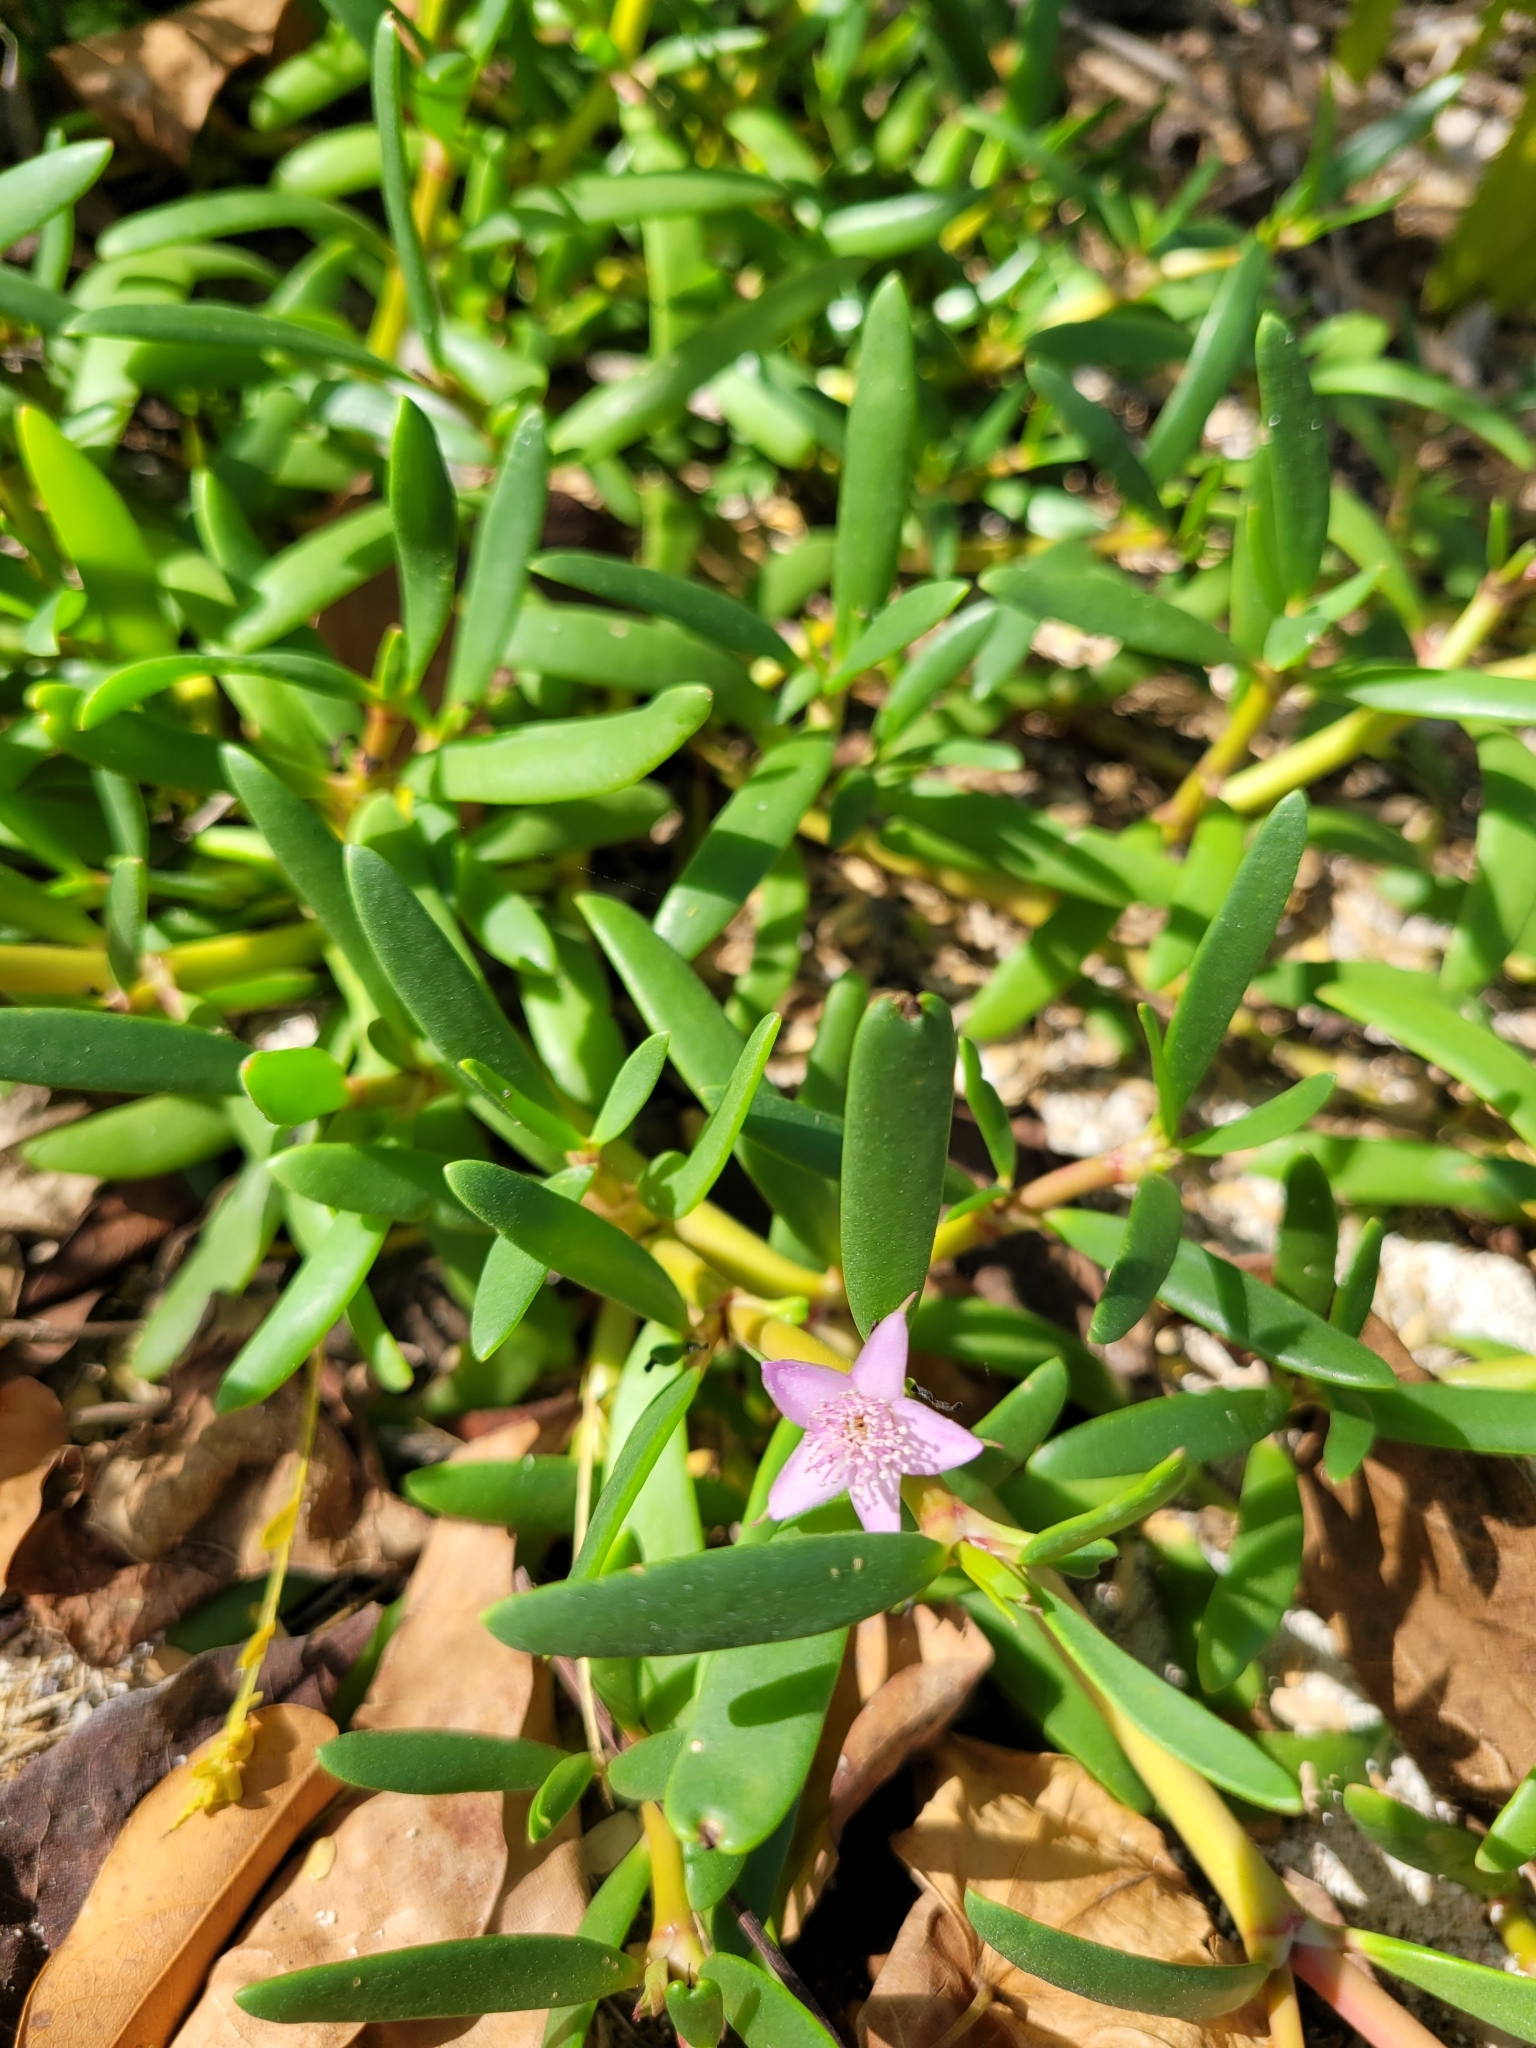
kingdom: Plantae
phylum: Tracheophyta
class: Magnoliopsida
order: Caryophyllales
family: Aizoaceae
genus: Sesuvium
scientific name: Sesuvium portulacastrum
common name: Sea-purslane
